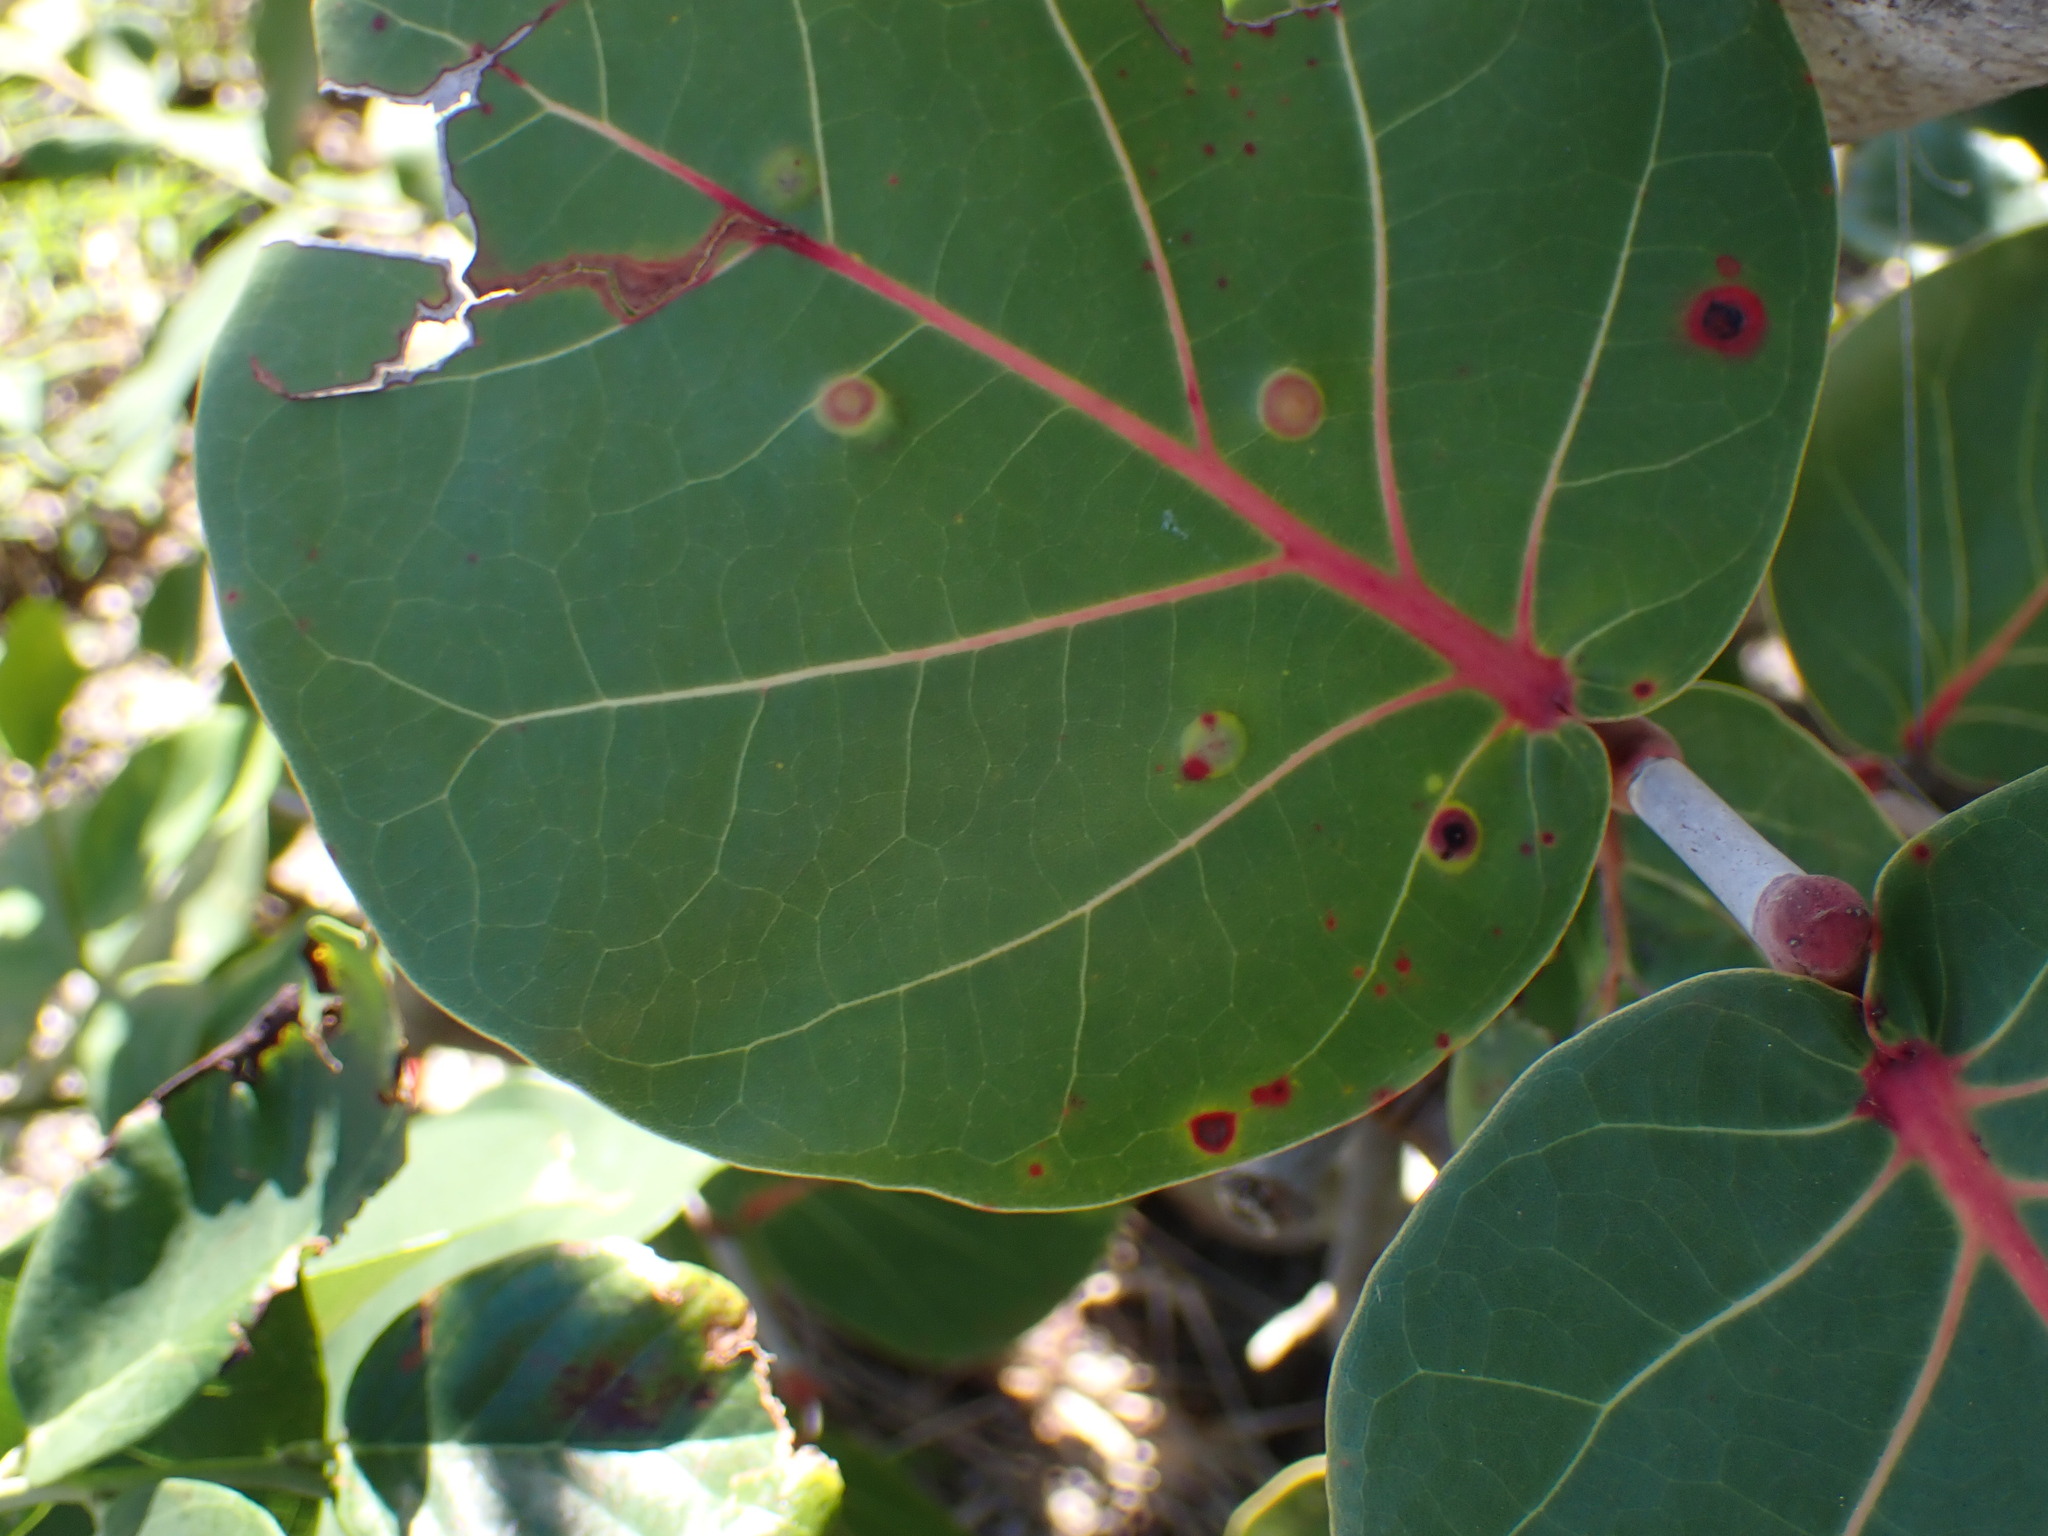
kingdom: Animalia
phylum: Arthropoda
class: Insecta
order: Diptera
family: Cecidomyiidae
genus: Ctenodactylomyia
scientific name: Ctenodactylomyia watsoni
